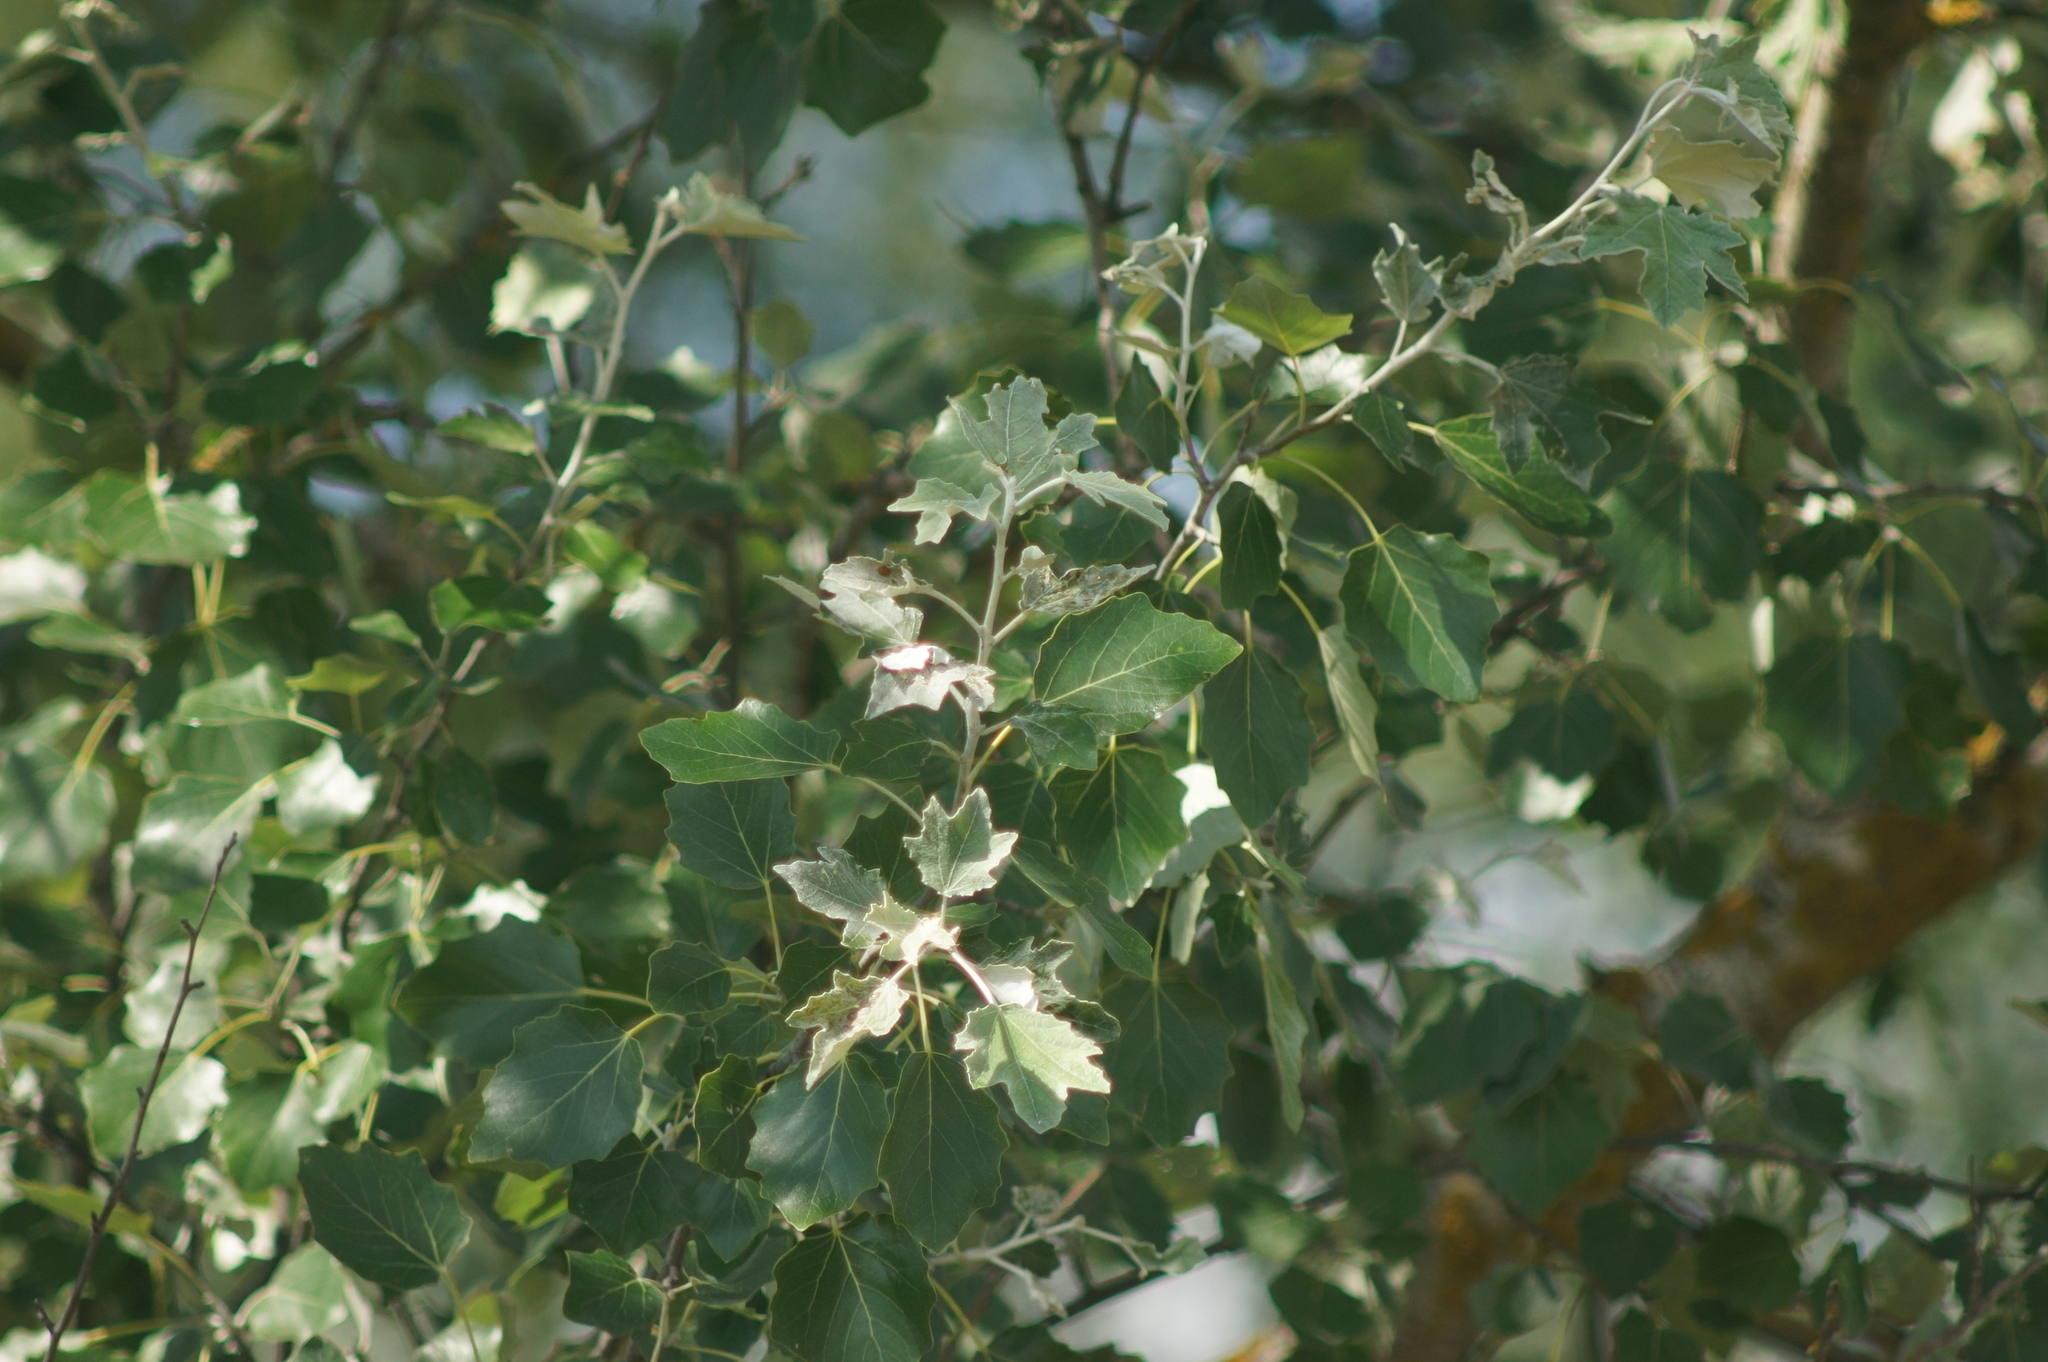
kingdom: Plantae
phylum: Tracheophyta
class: Magnoliopsida
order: Malpighiales
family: Salicaceae
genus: Populus
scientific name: Populus canescens
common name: Gray poplar
